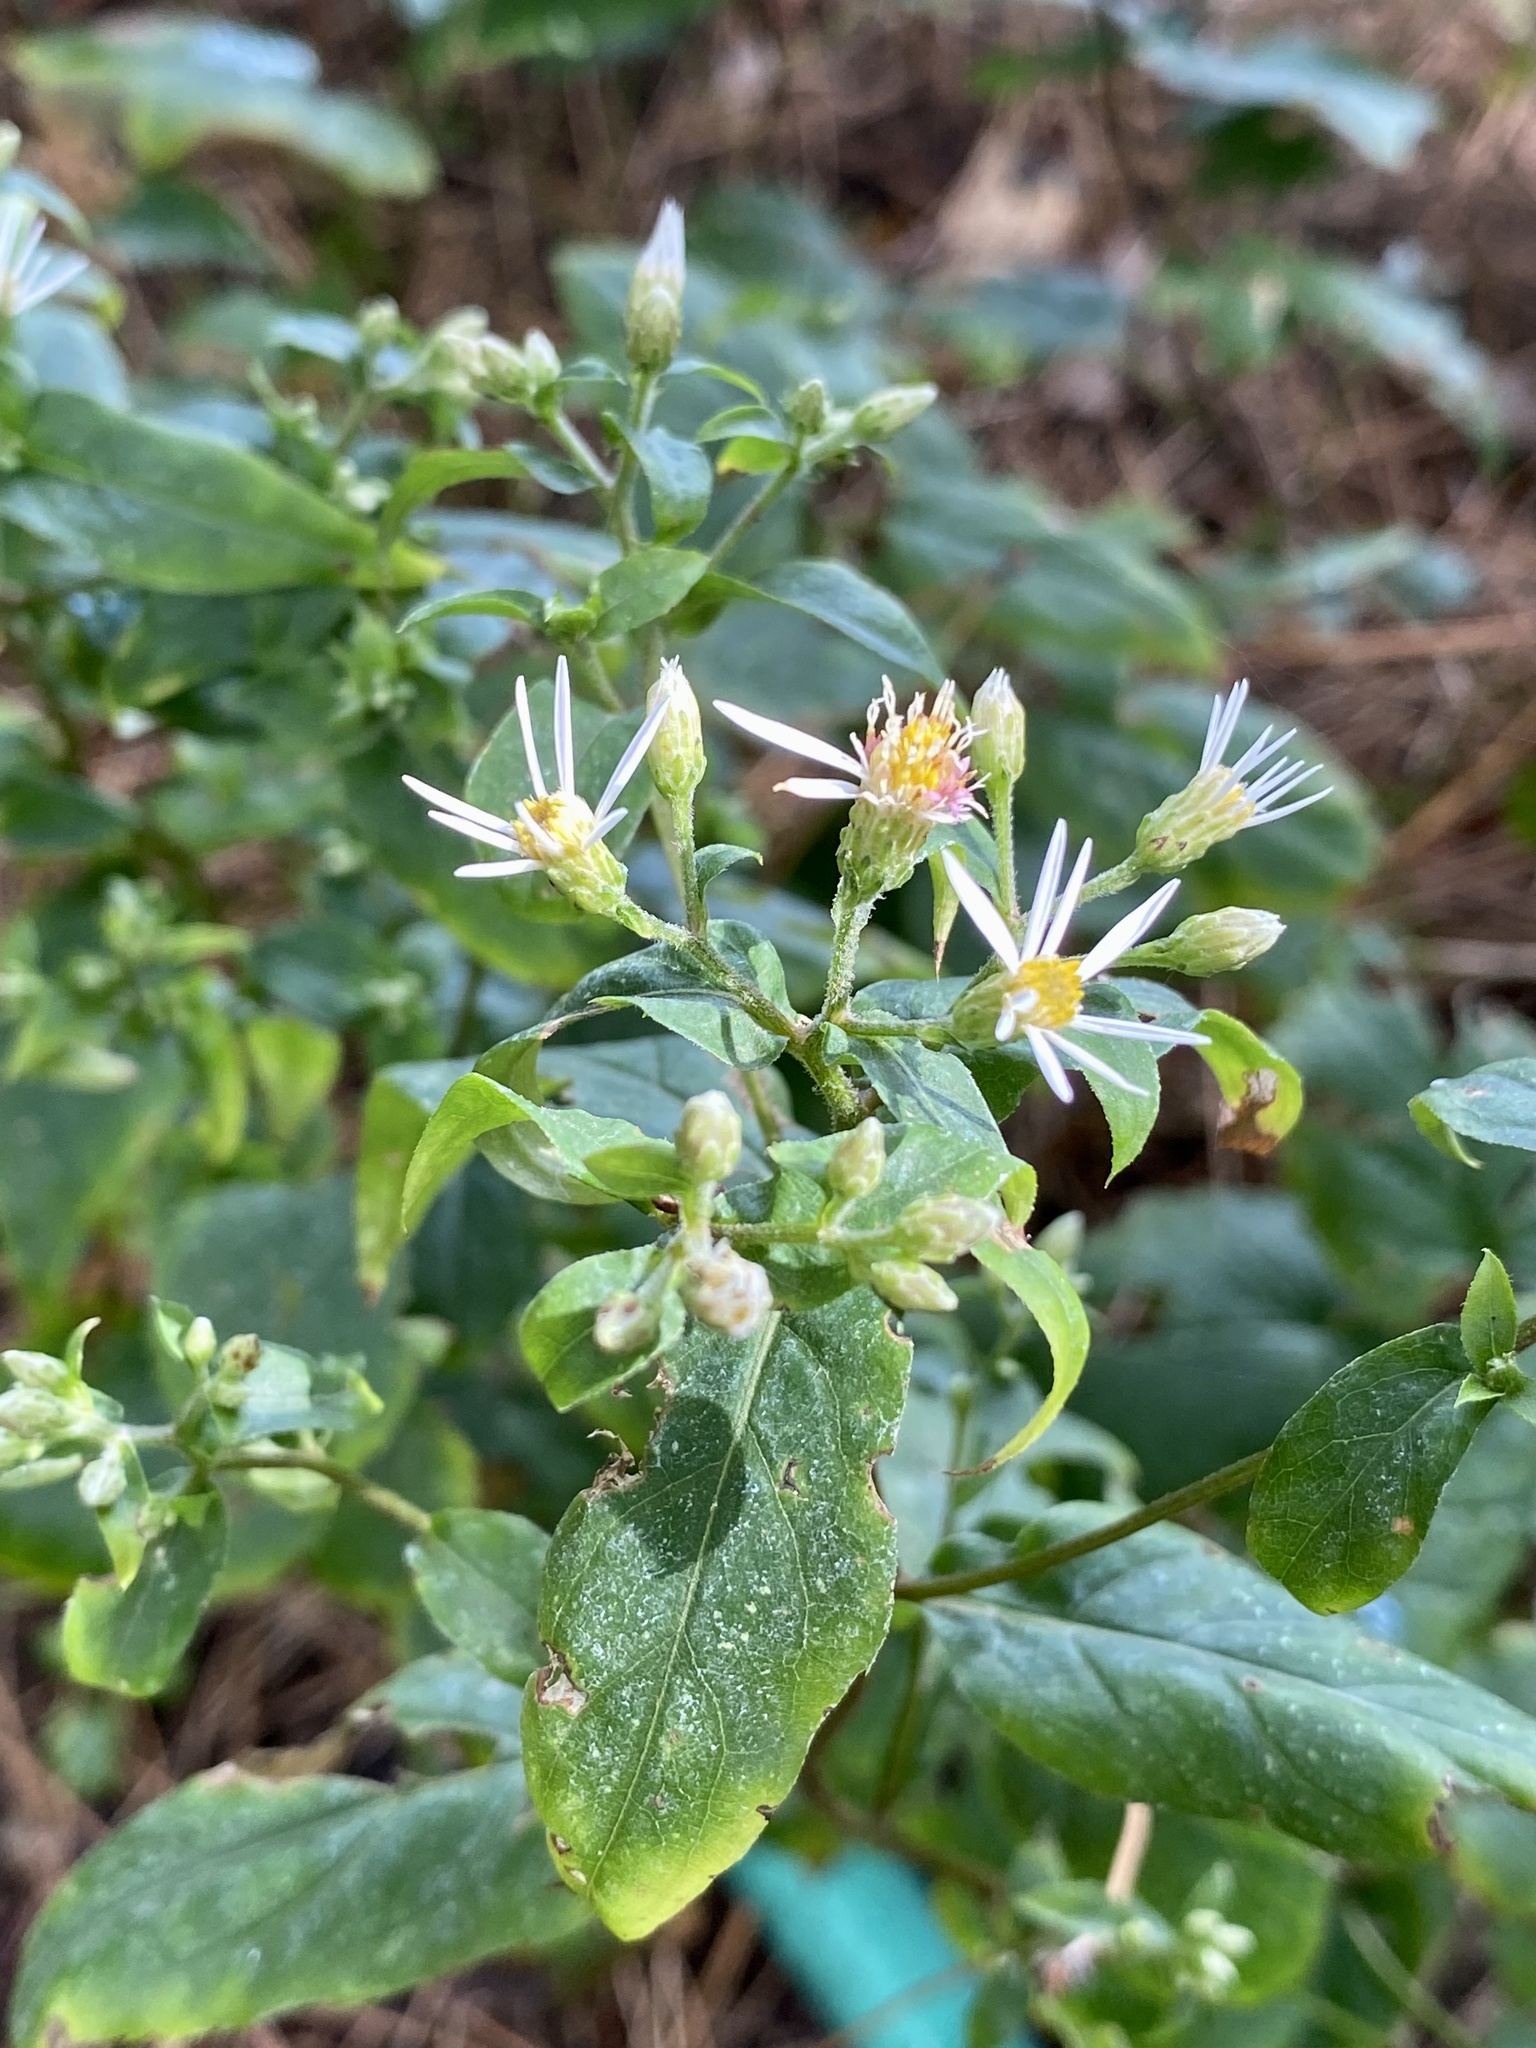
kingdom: Plantae
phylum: Tracheophyta
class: Magnoliopsida
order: Asterales
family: Asteraceae
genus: Eurybia
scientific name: Eurybia divaricata
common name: White wood aster
